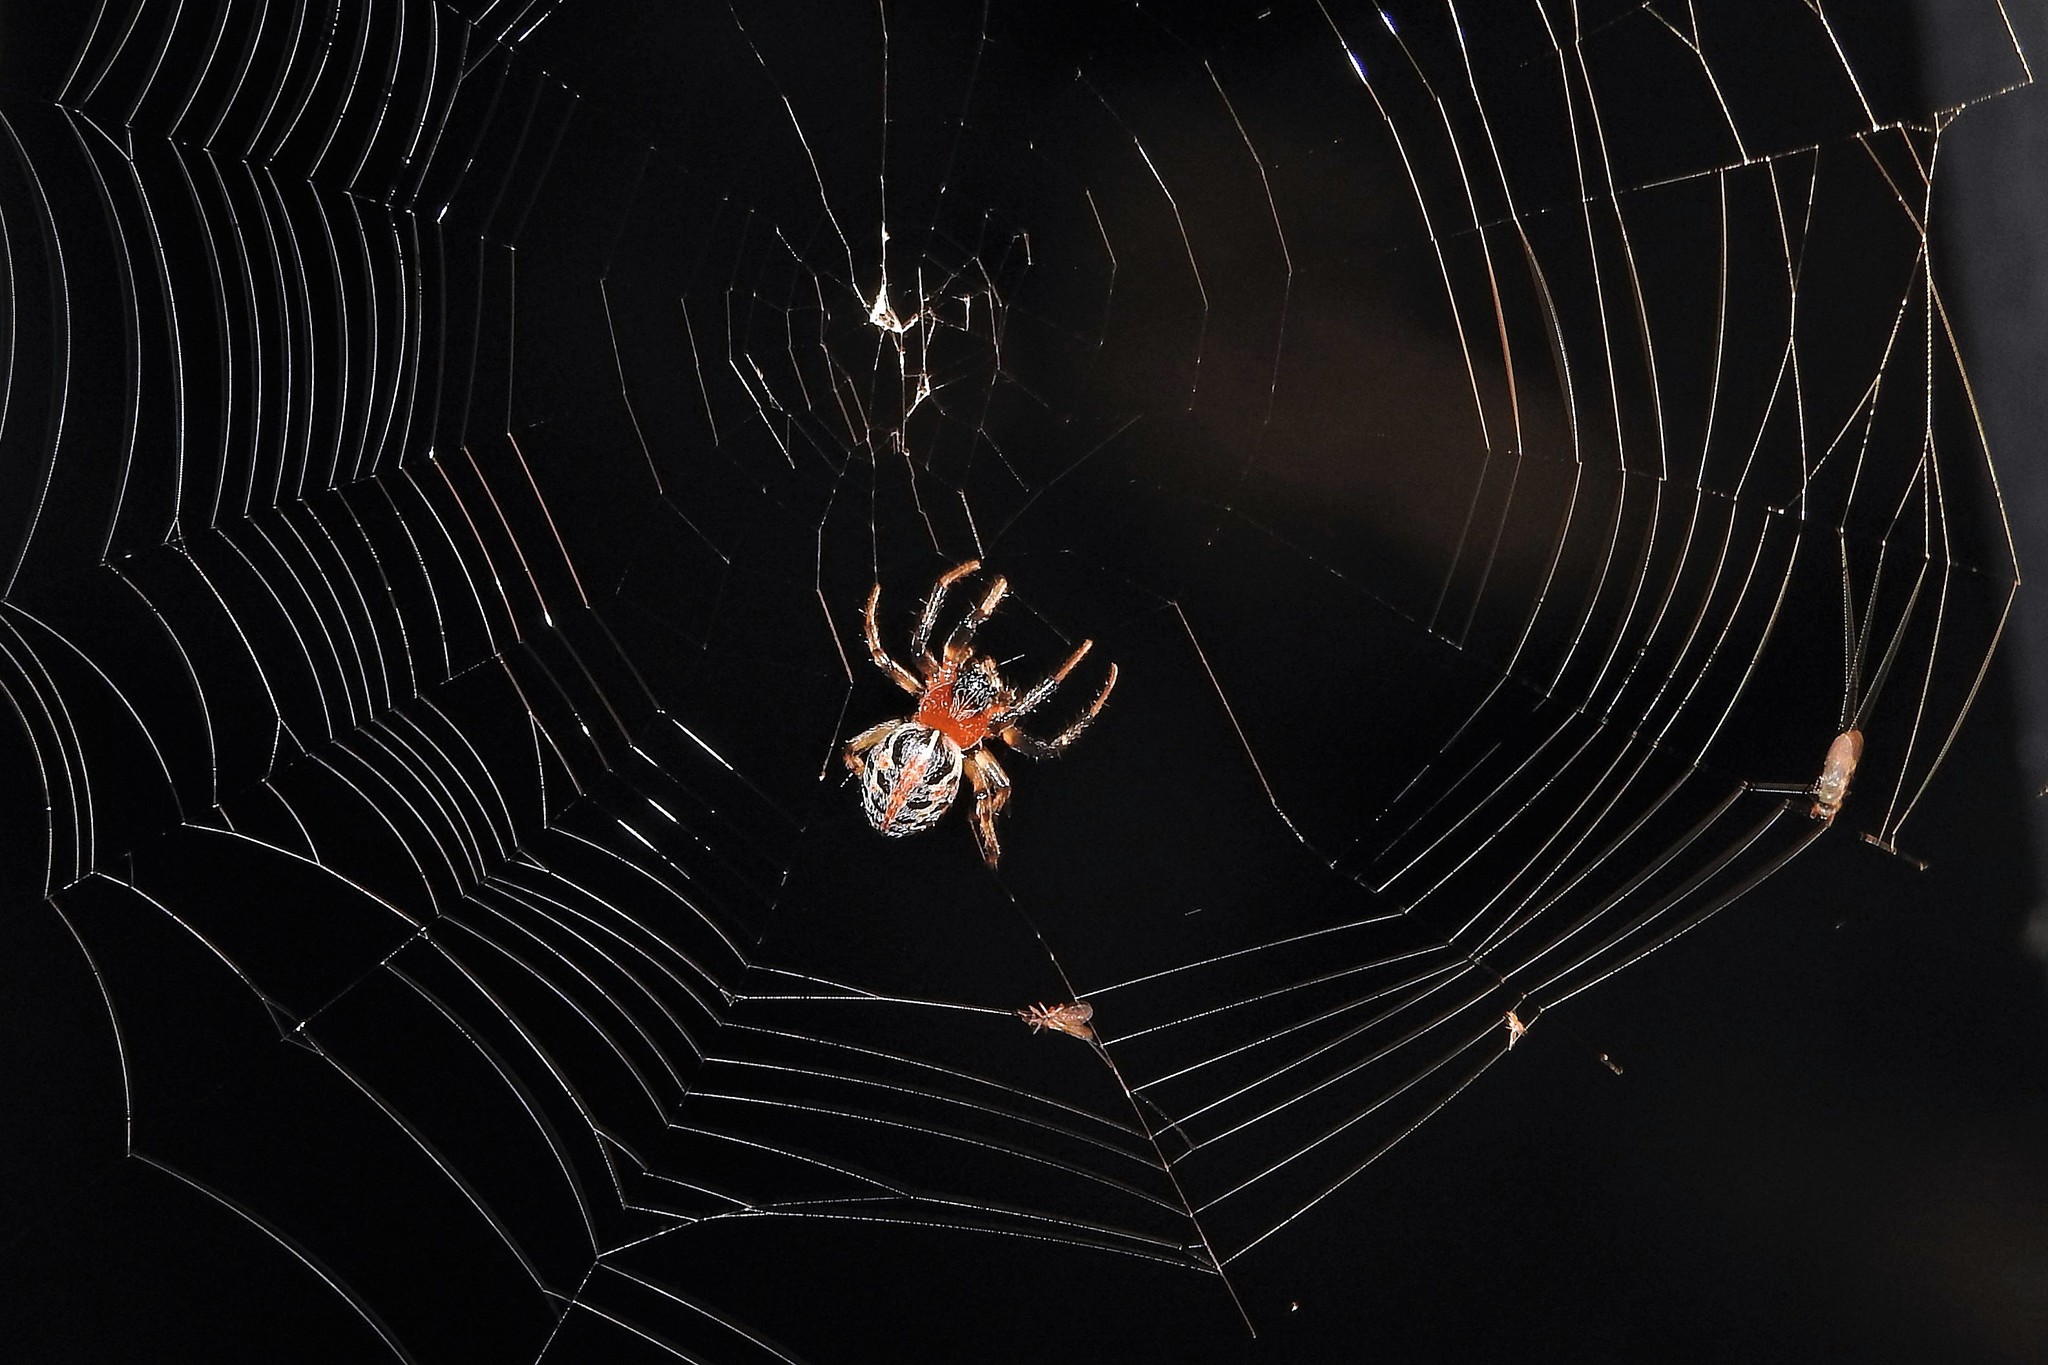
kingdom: Animalia
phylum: Arthropoda
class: Arachnida
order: Araneae
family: Araneidae
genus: Alpaida
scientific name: Alpaida versicolor
